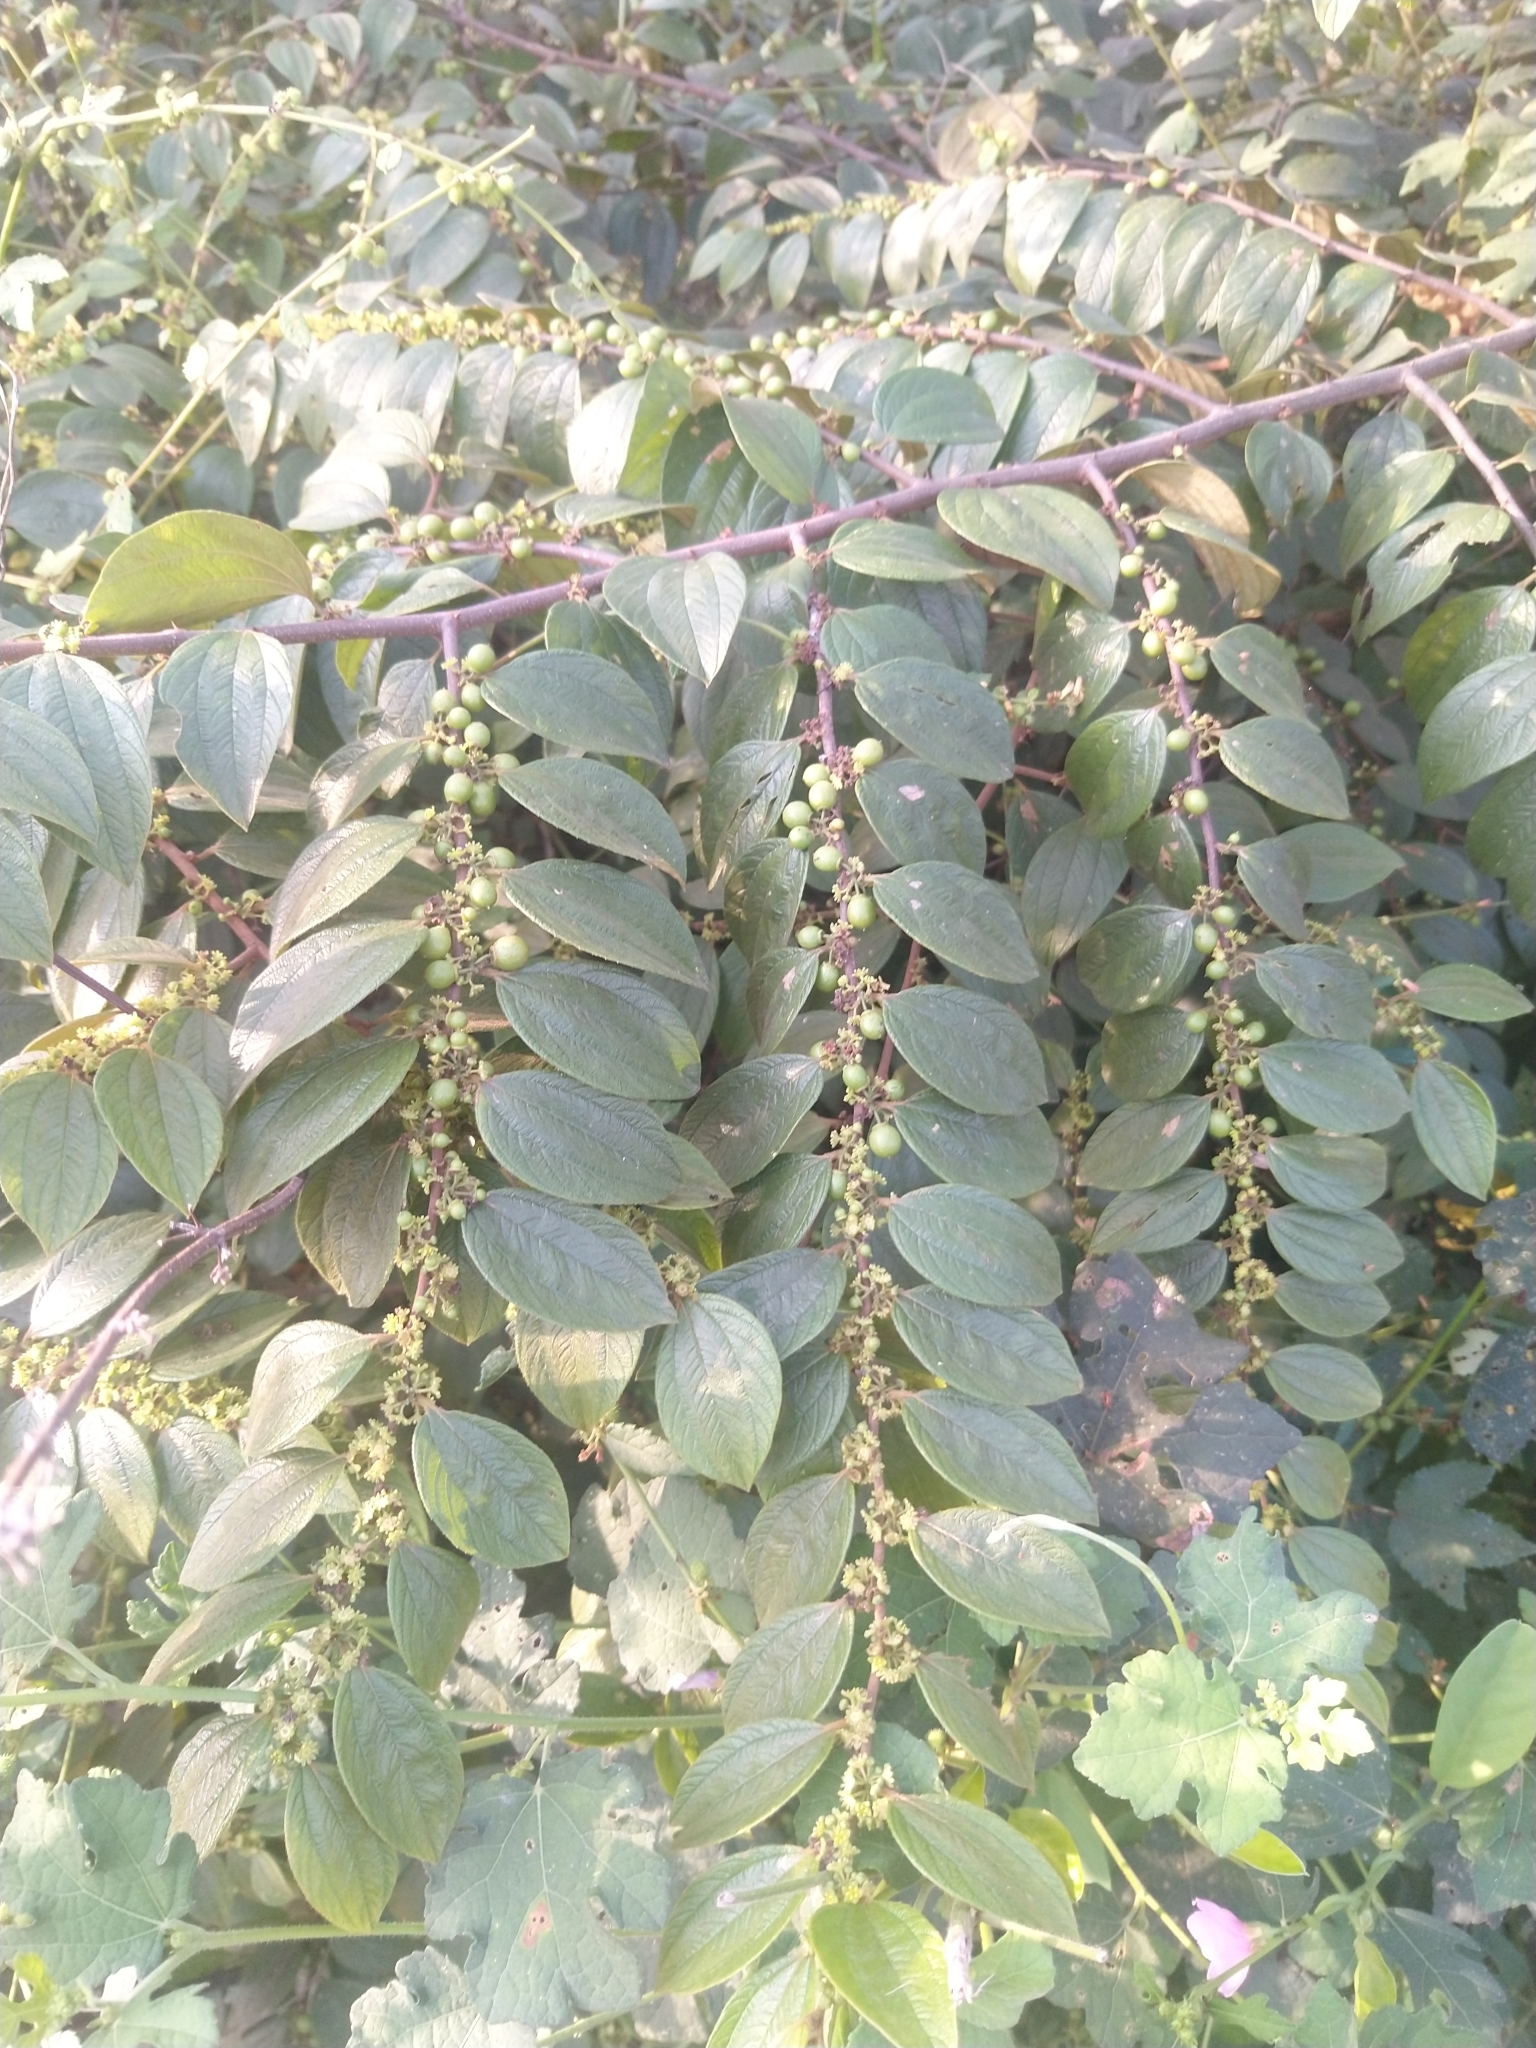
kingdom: Plantae
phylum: Tracheophyta
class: Magnoliopsida
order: Rosales
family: Rhamnaceae
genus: Ziziphus
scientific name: Ziziphus oenopolia
